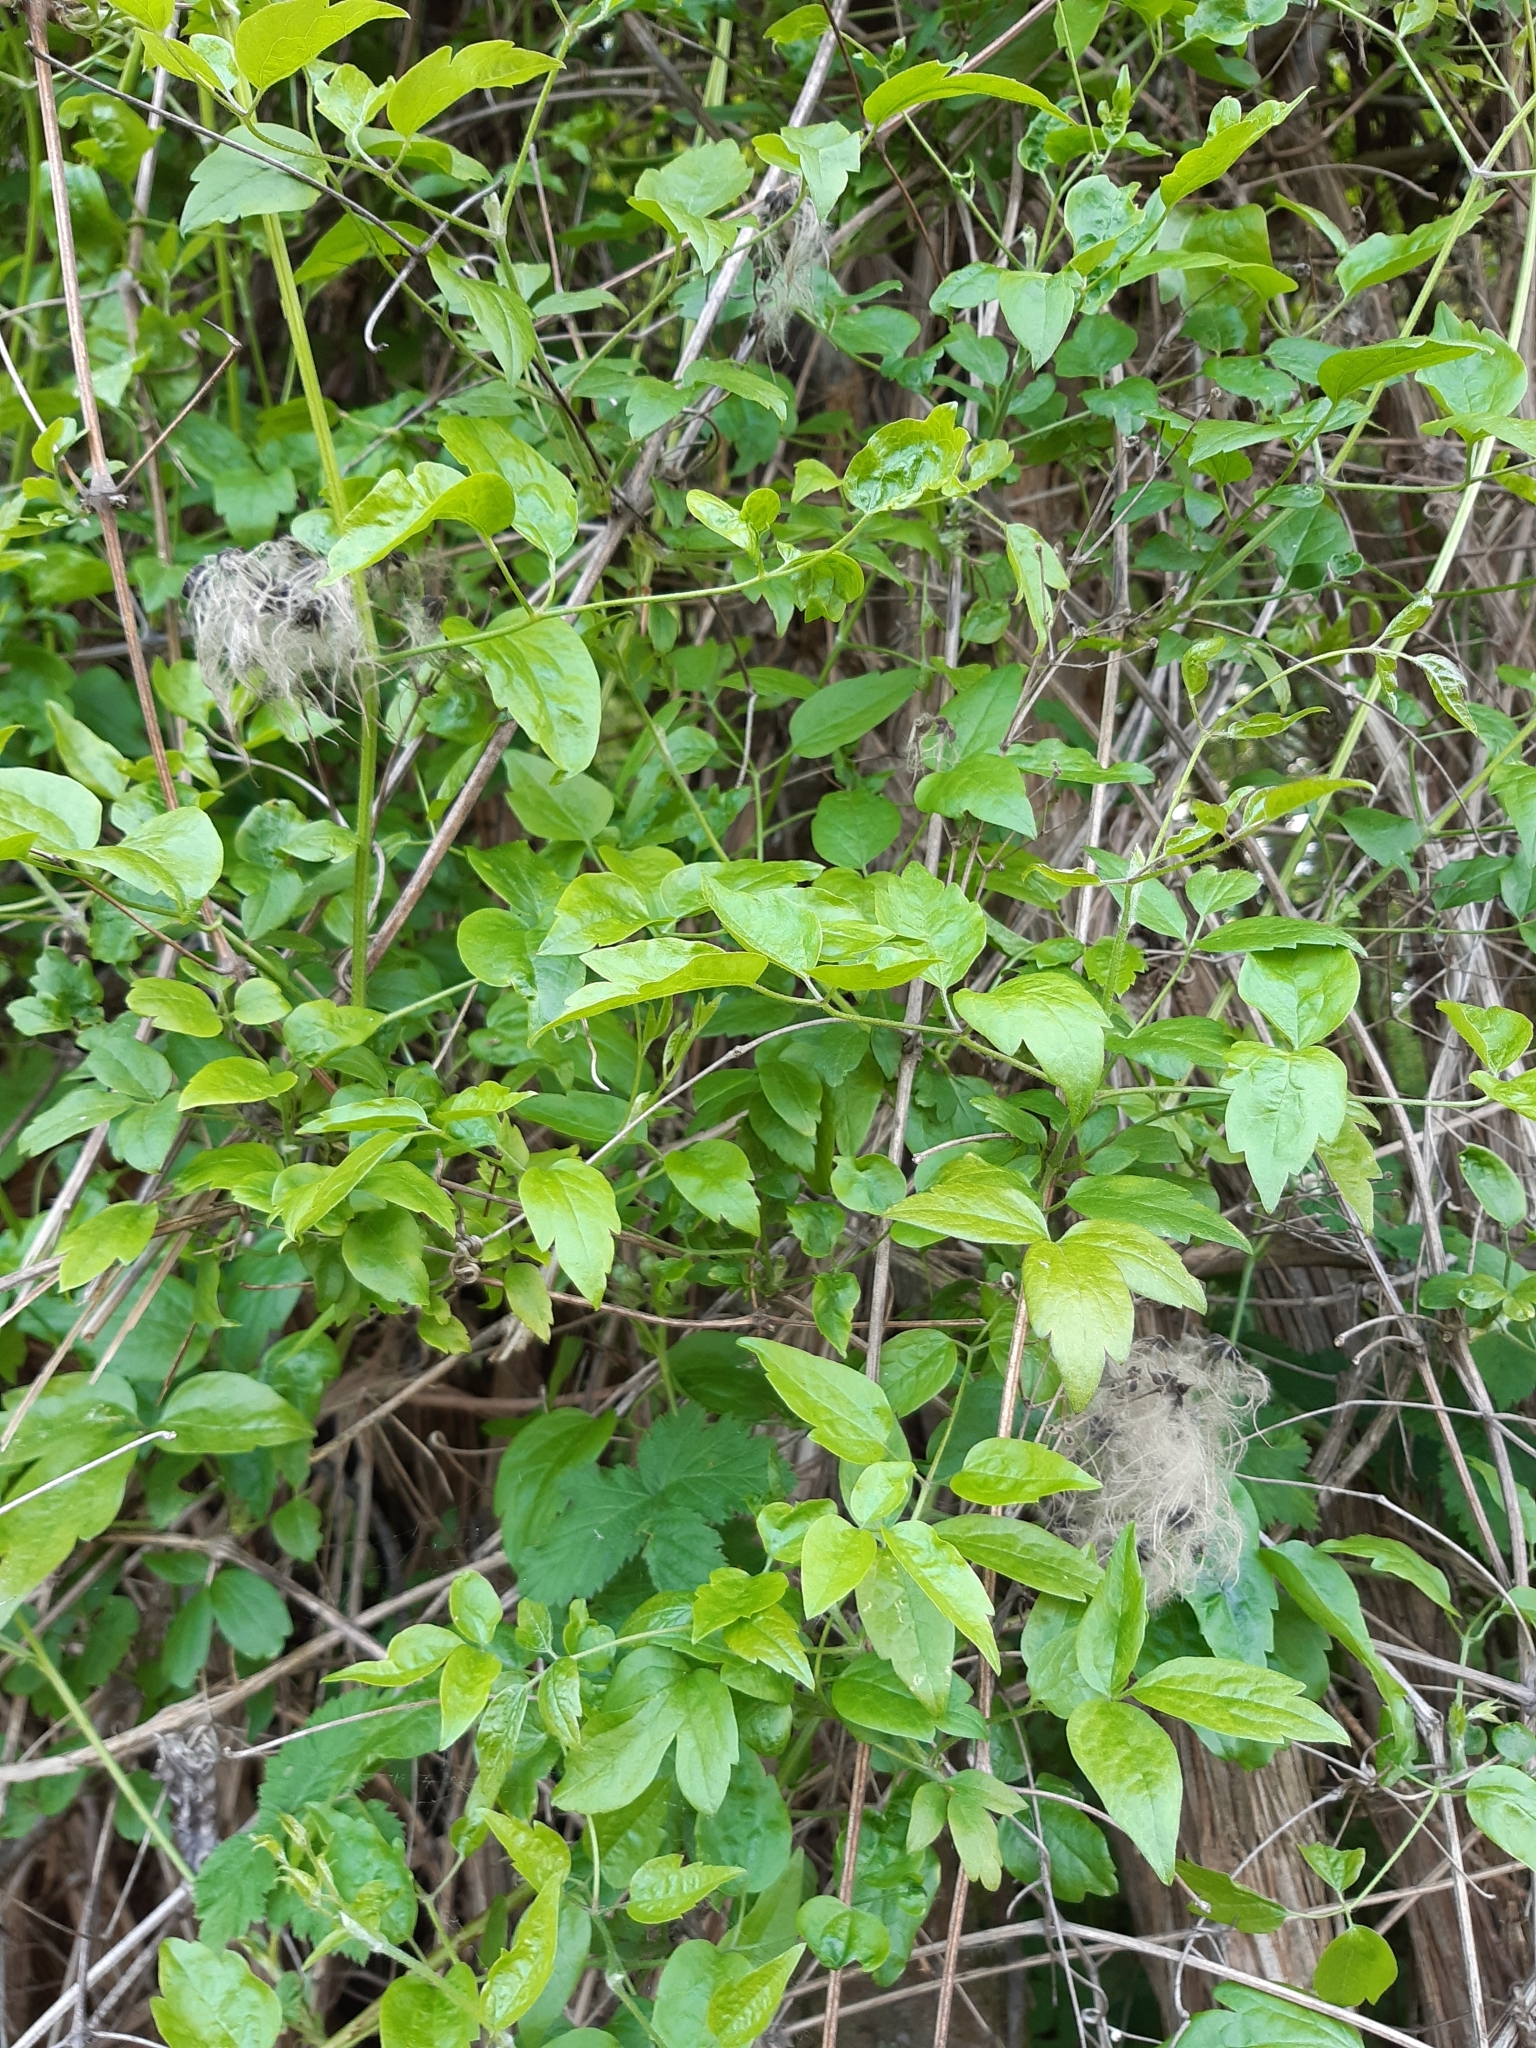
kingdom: Plantae
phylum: Tracheophyta
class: Magnoliopsida
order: Ranunculales
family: Ranunculaceae
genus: Clematis
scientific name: Clematis vitalba
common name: Evergreen clematis
